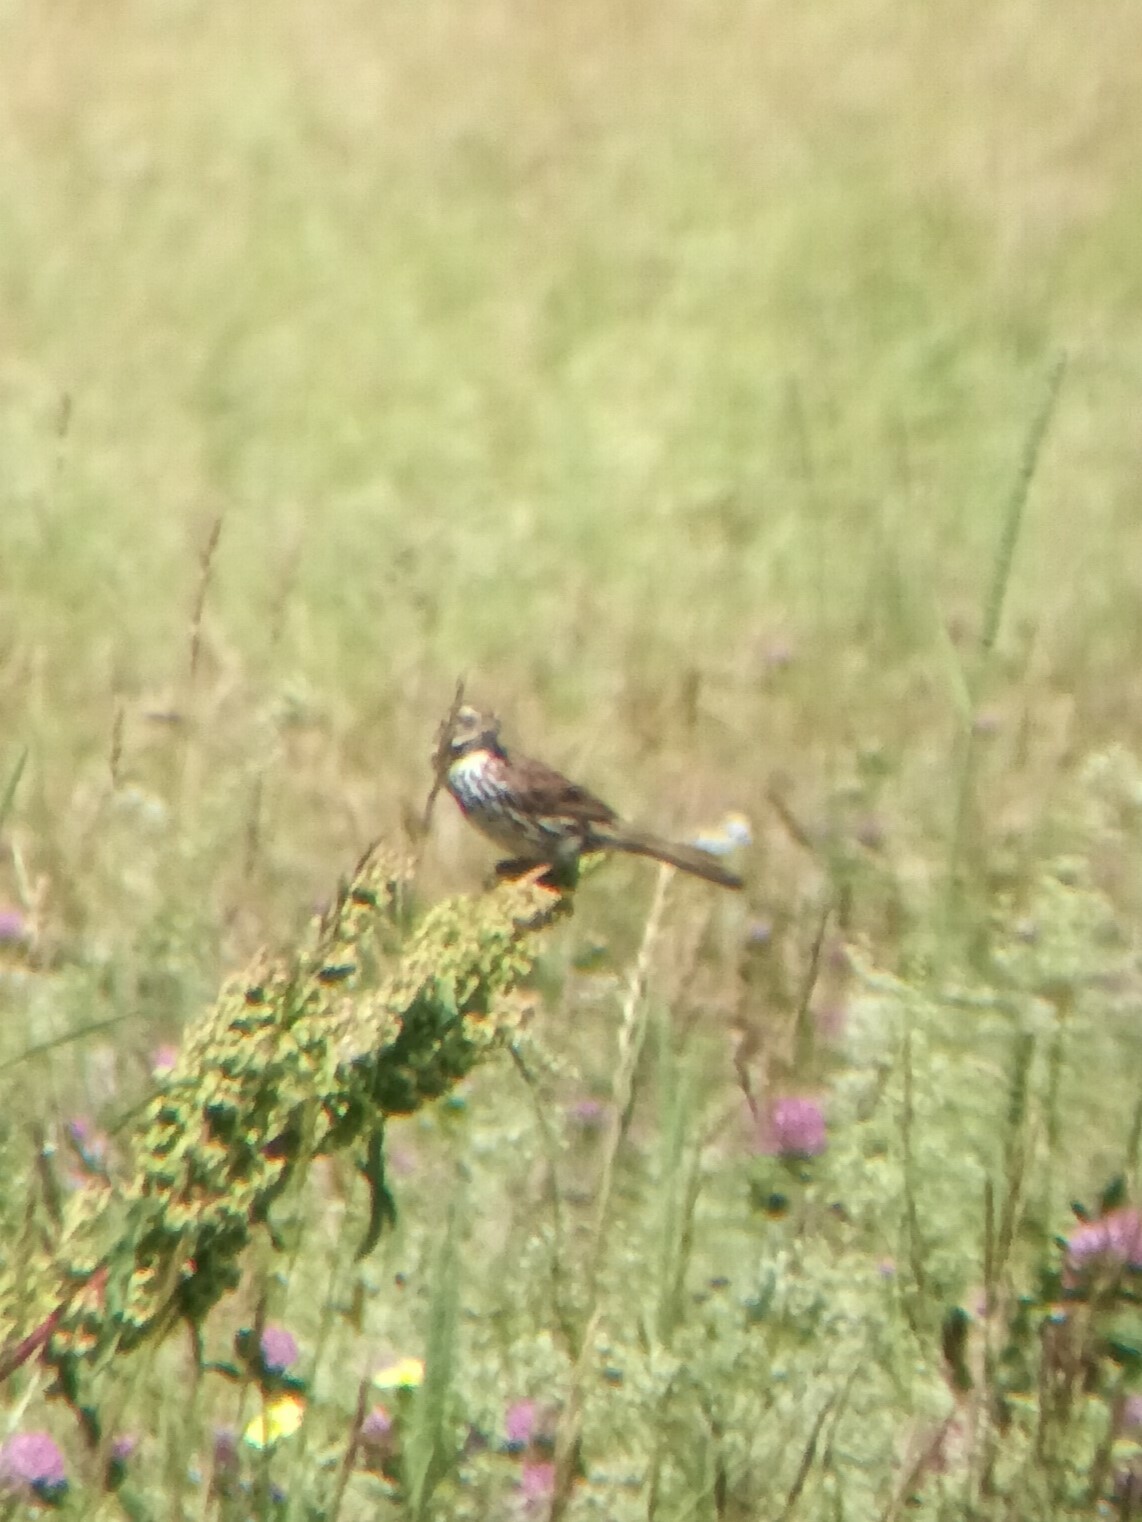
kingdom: Animalia
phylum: Chordata
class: Aves
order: Passeriformes
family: Passerellidae
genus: Melospiza
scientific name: Melospiza melodia
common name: Song sparrow
